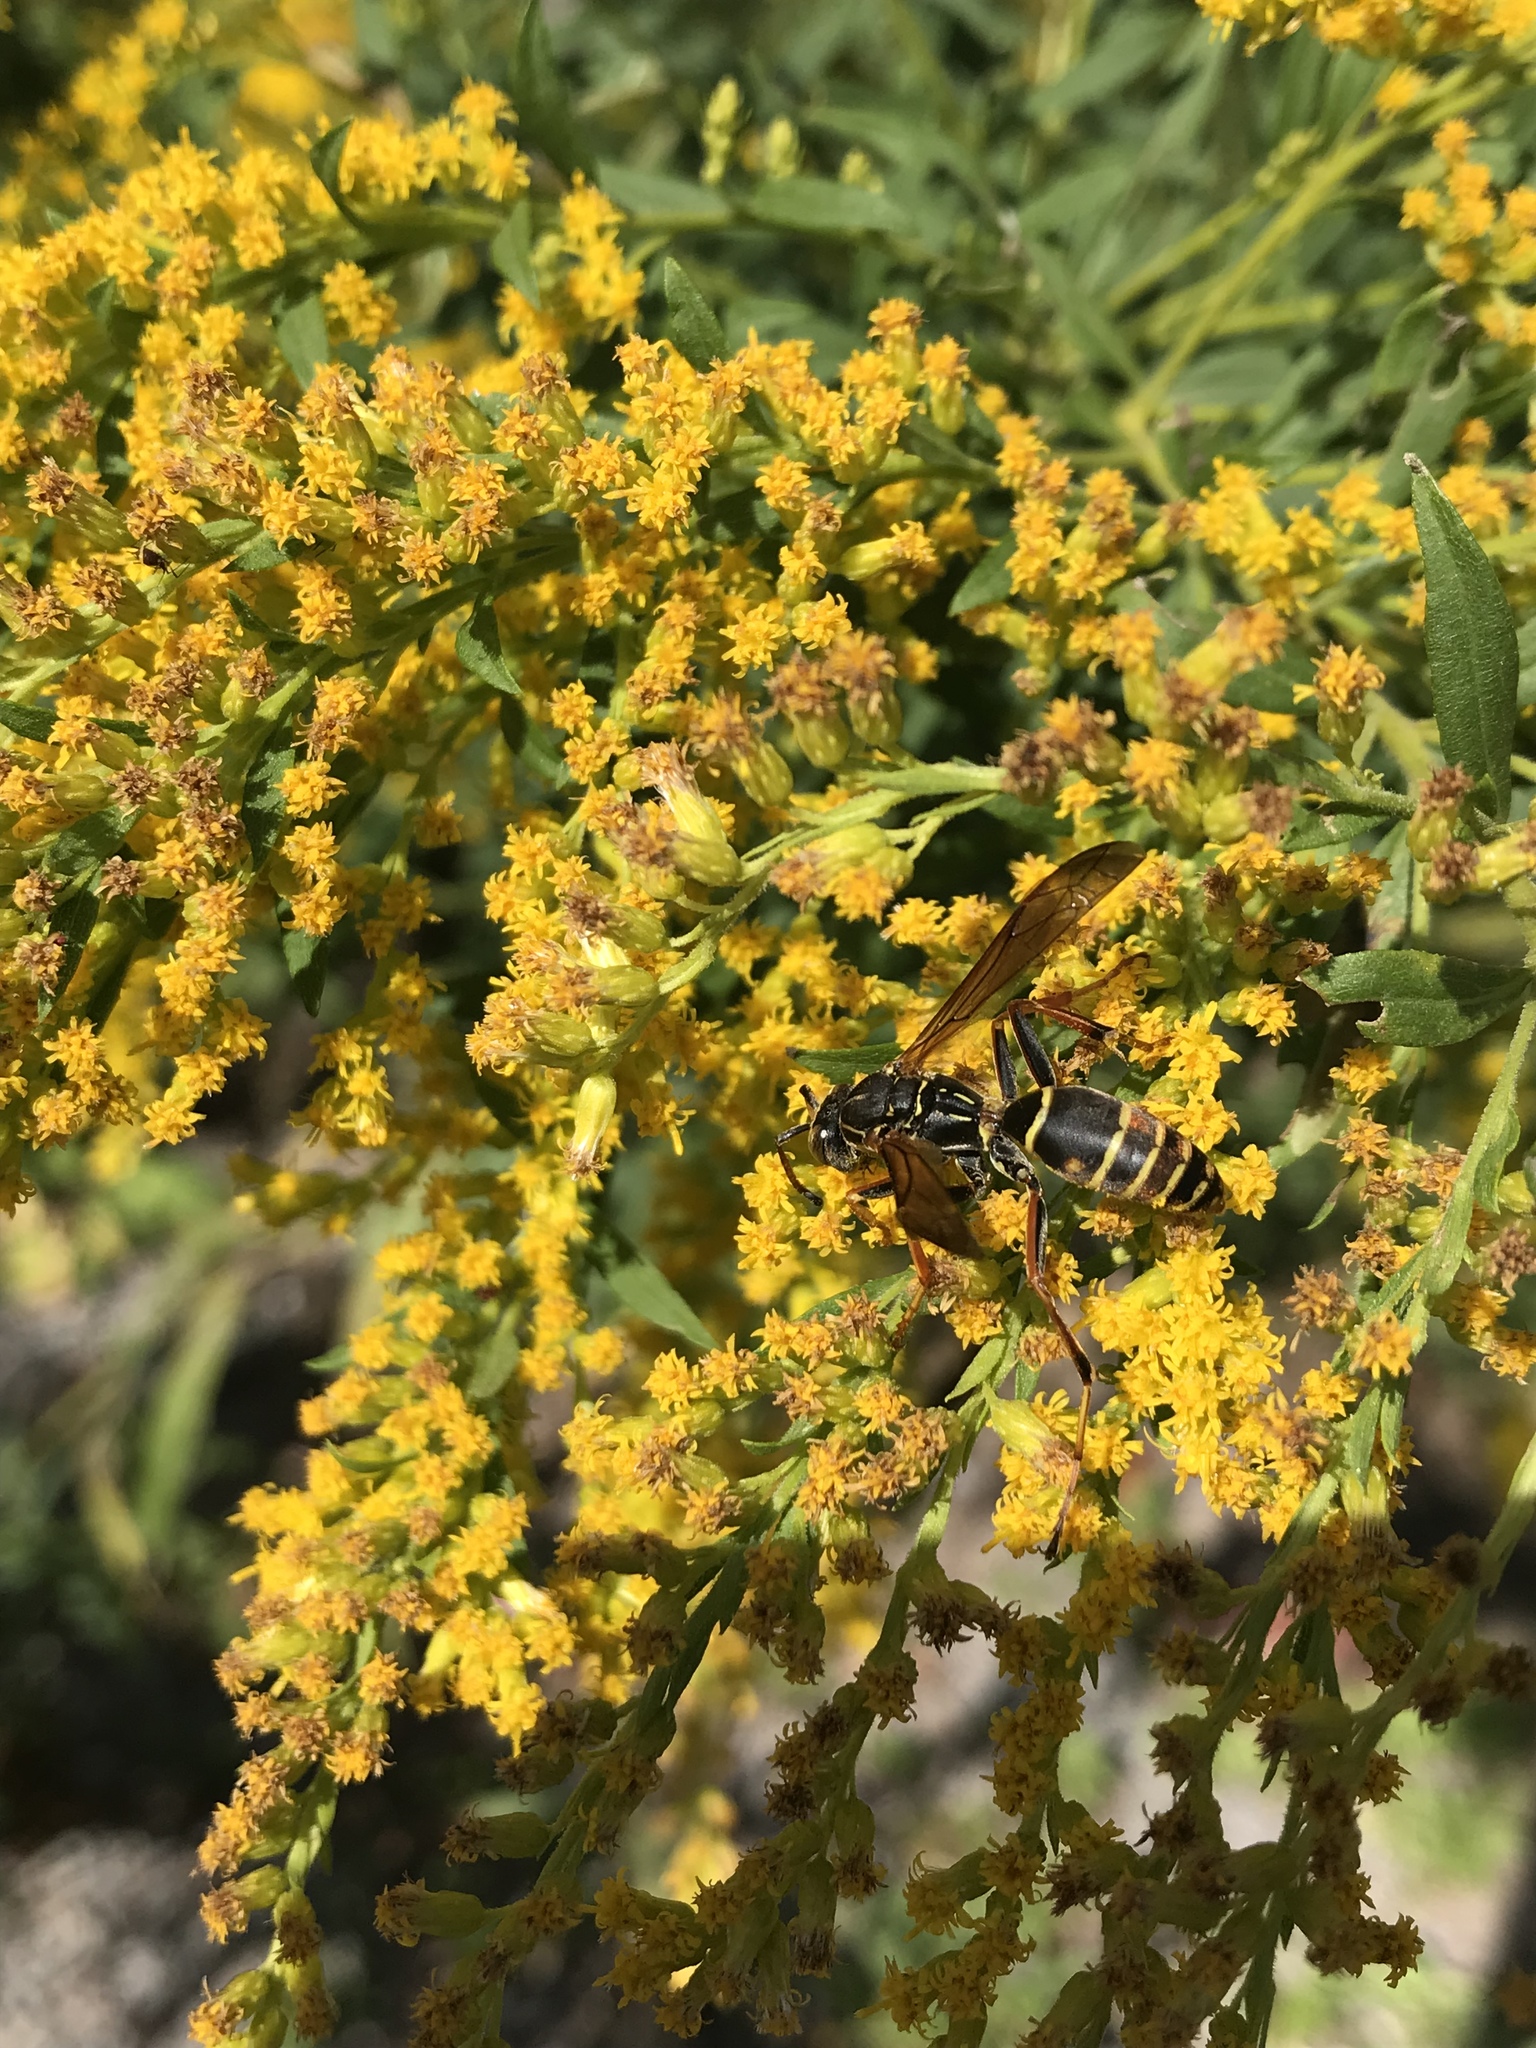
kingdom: Animalia
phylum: Arthropoda
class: Insecta
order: Hymenoptera
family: Eumenidae
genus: Polistes
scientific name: Polistes fuscatus
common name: Dark paper wasp
